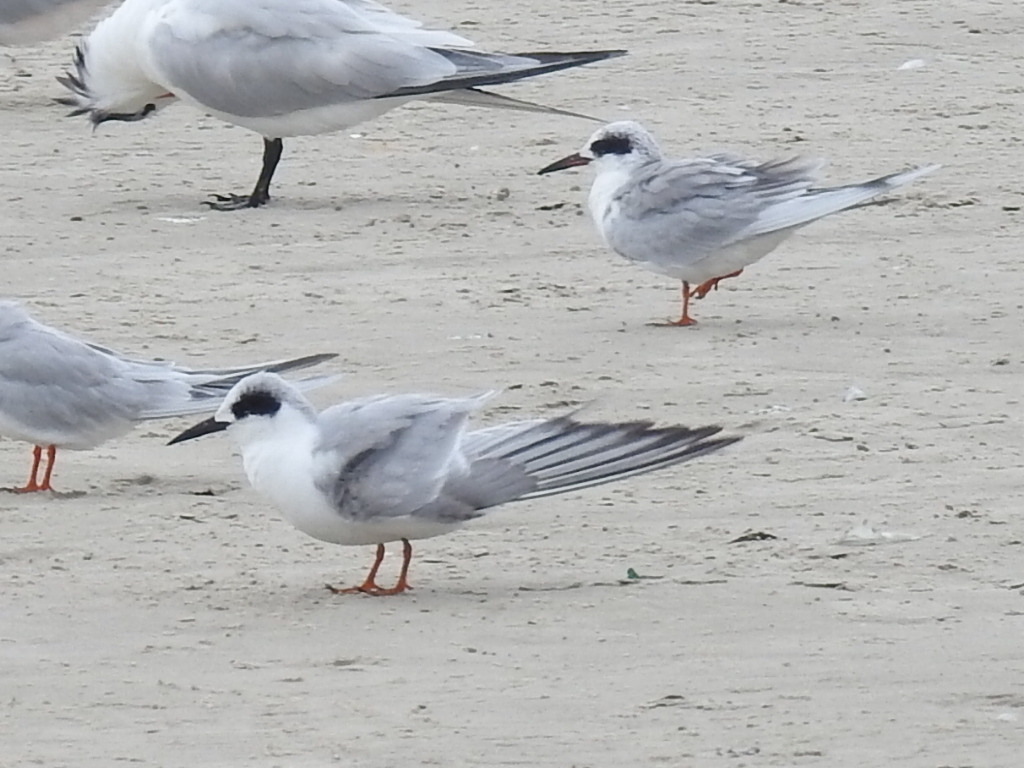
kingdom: Animalia
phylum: Chordata
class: Aves
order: Charadriiformes
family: Laridae
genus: Sterna
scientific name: Sterna forsteri
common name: Forster's tern
